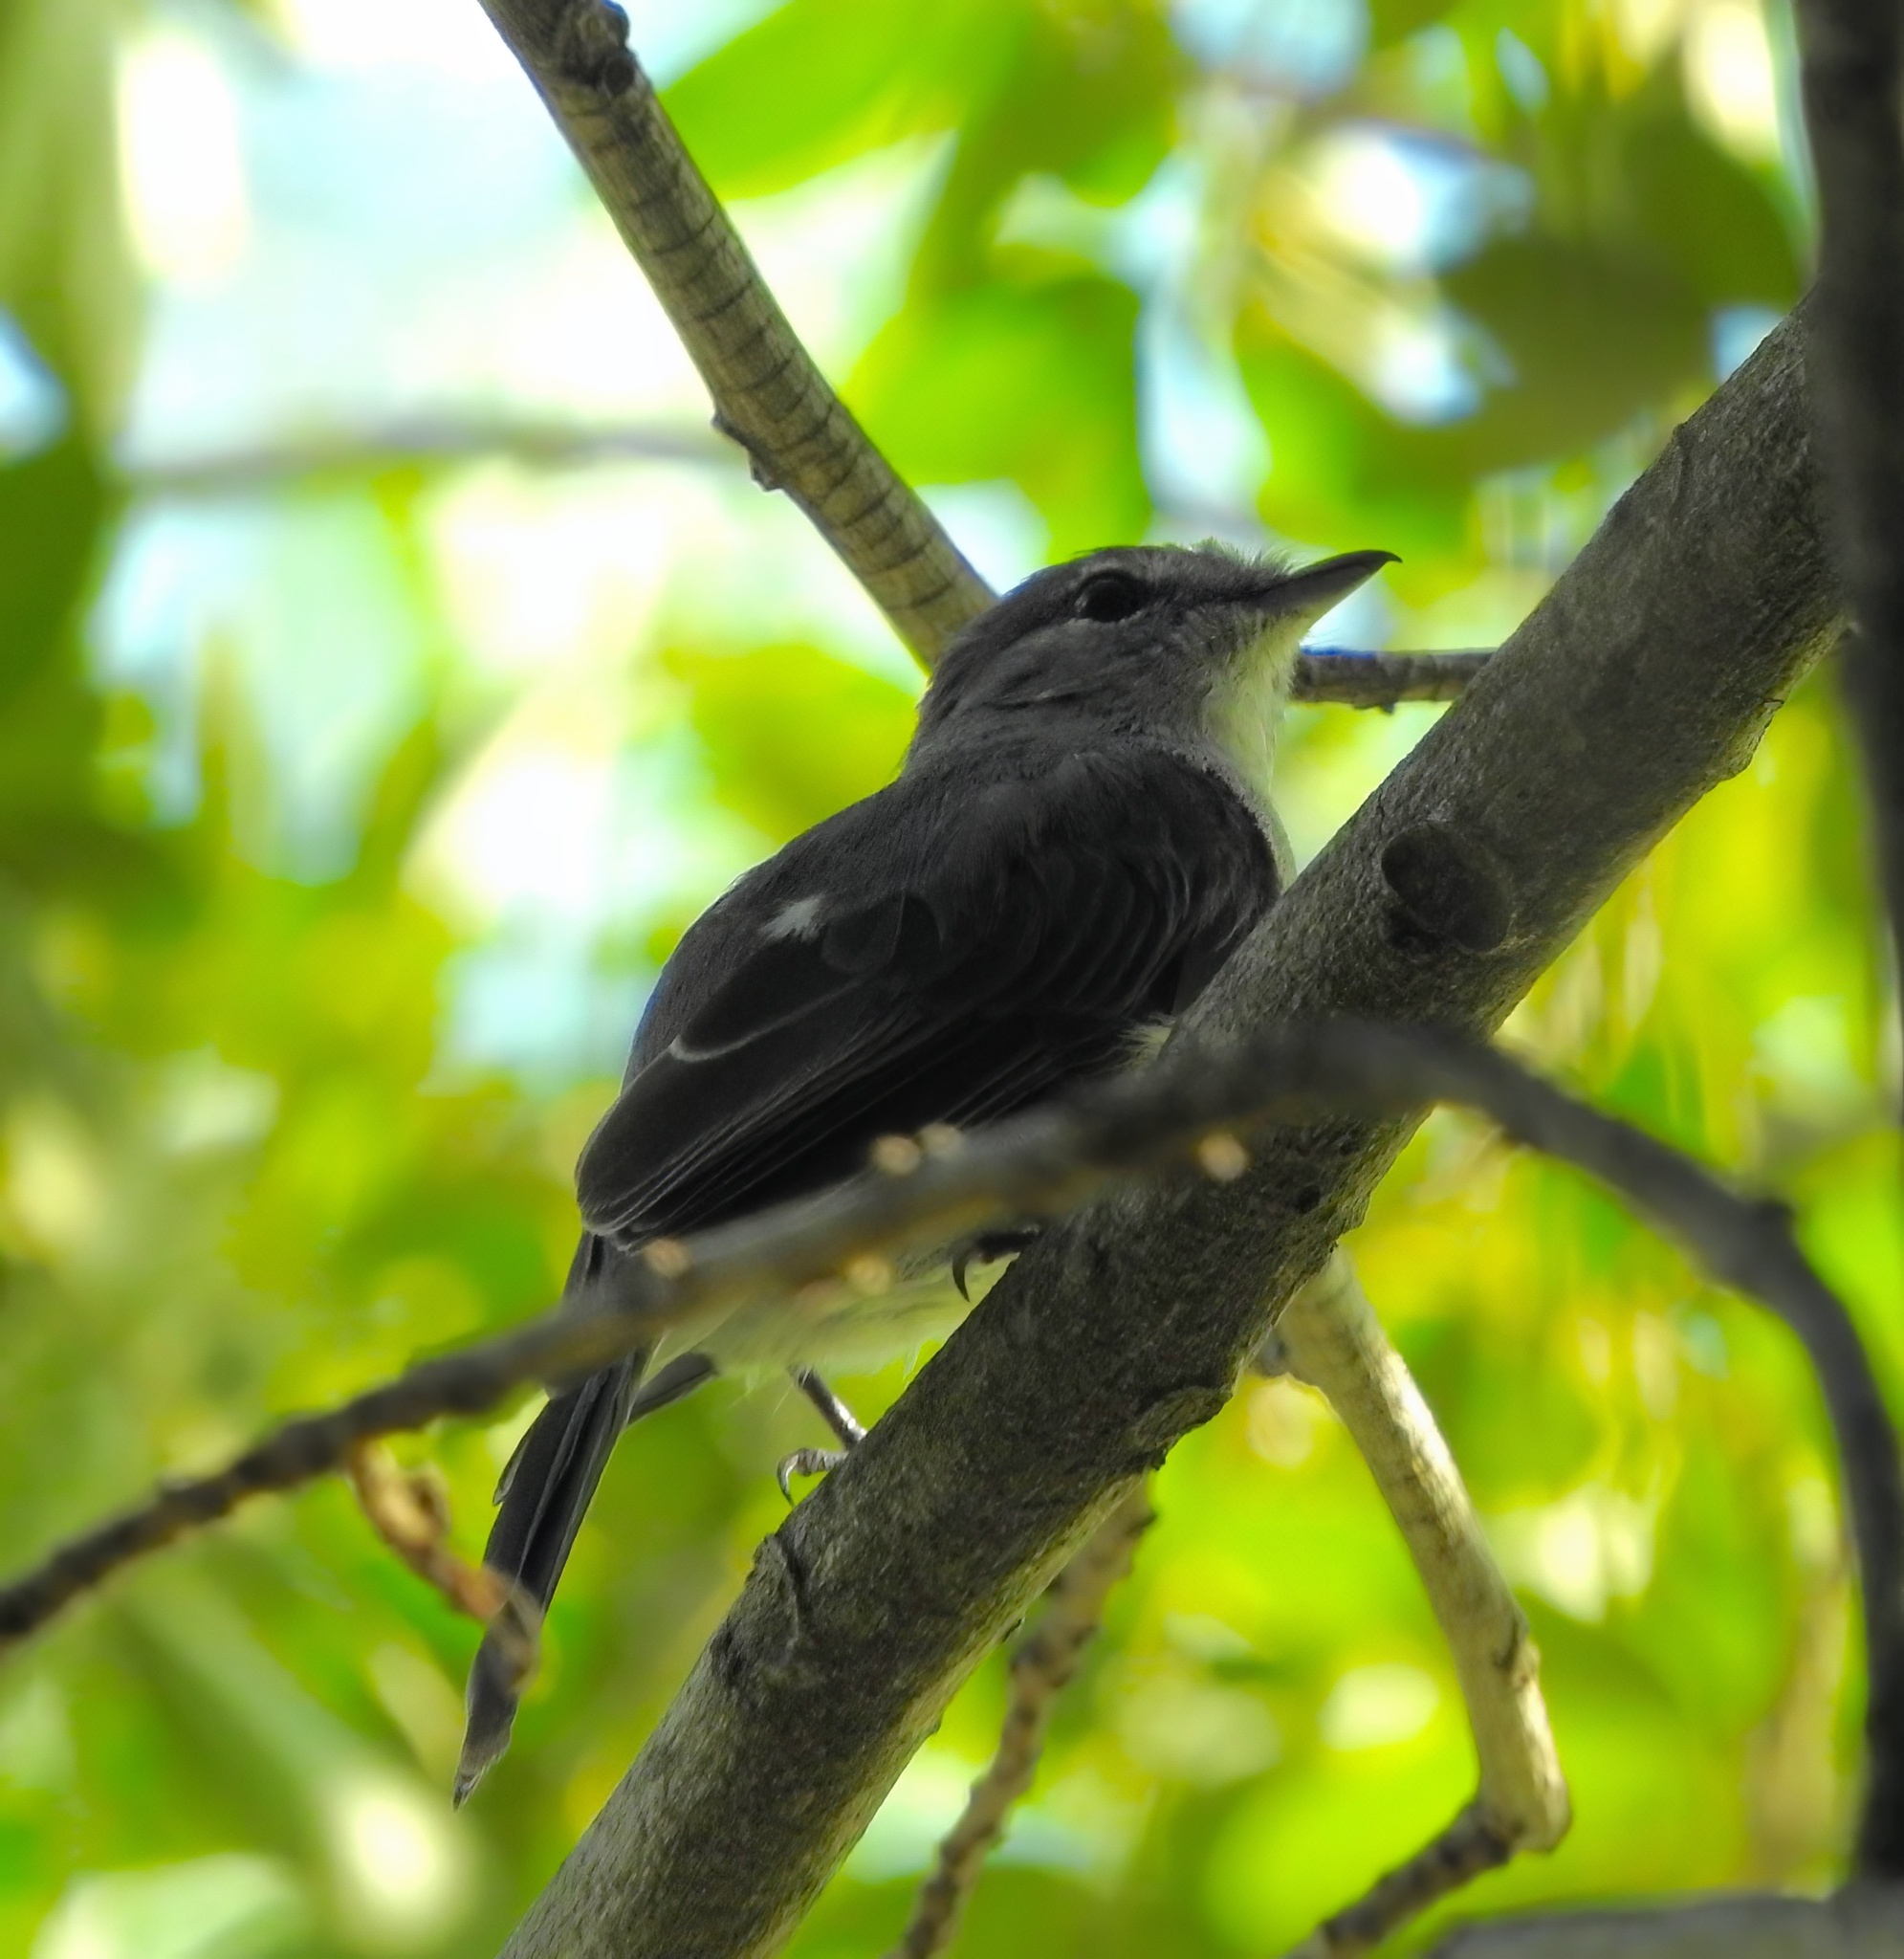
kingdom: Animalia
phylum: Chordata
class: Aves
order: Passeriformes
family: Muscicapidae
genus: Muscicapa
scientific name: Muscicapa caerulescens
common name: Ashy flycatcher
